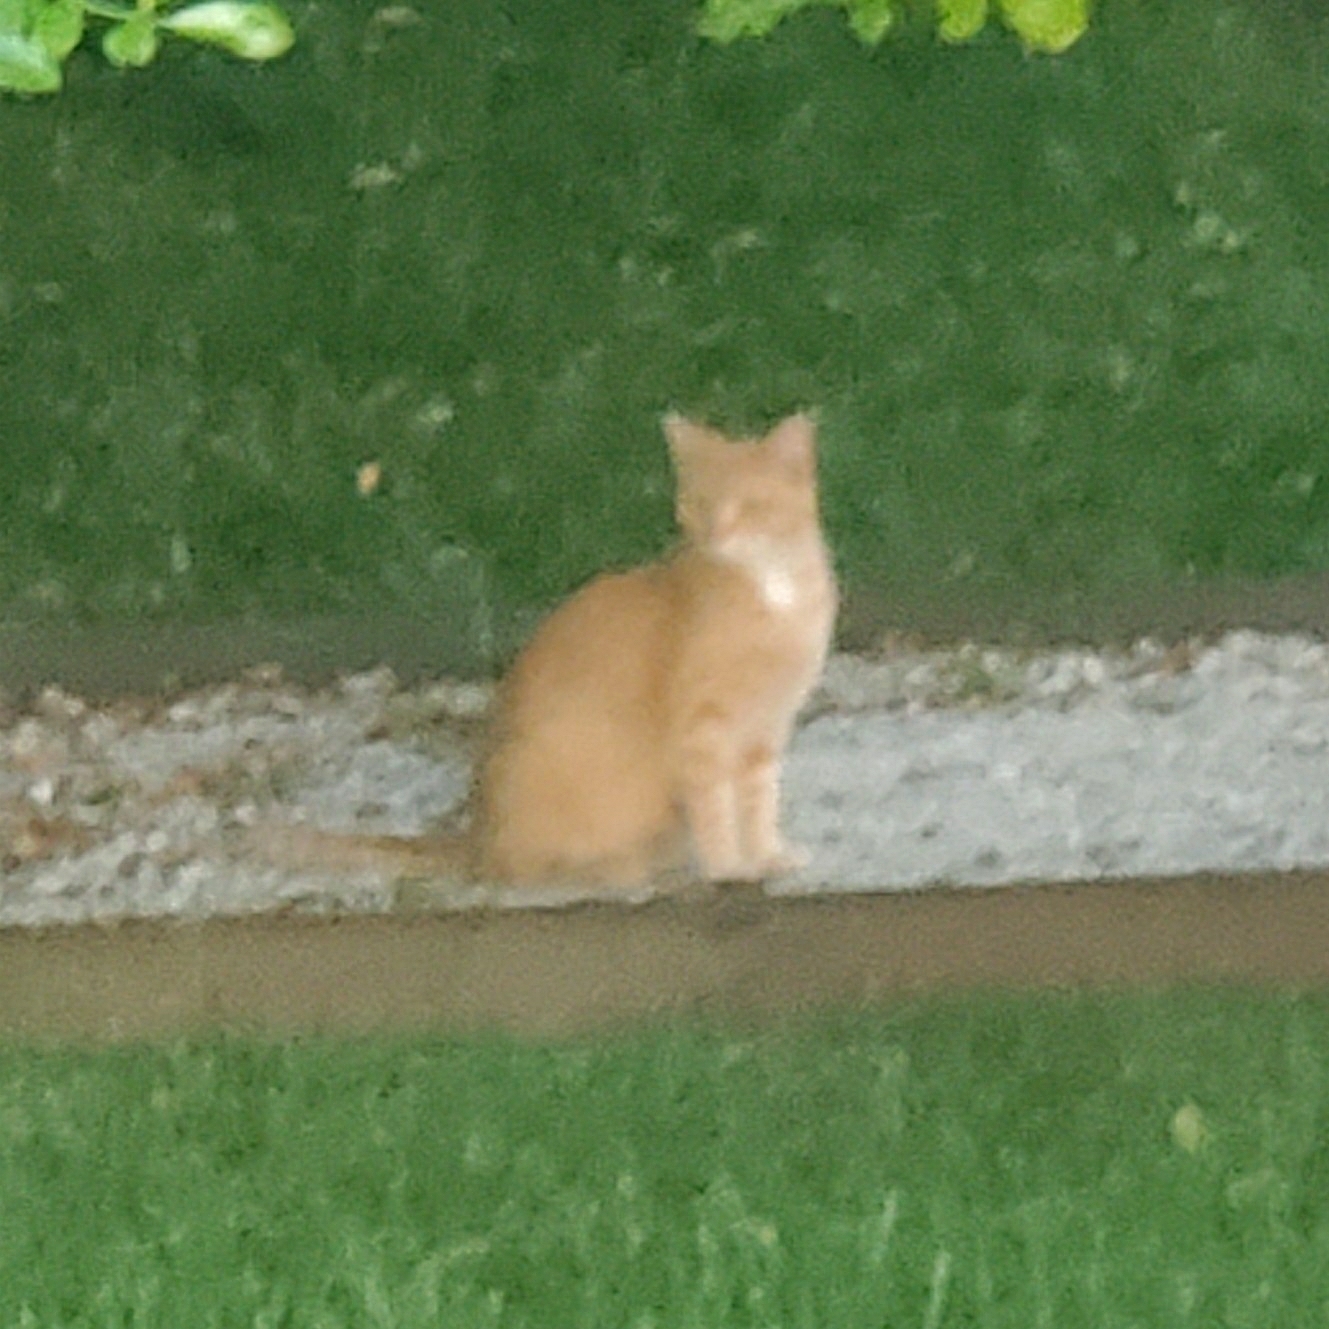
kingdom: Animalia
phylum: Chordata
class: Mammalia
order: Carnivora
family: Felidae
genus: Felis
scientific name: Felis catus
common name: Domestic cat
